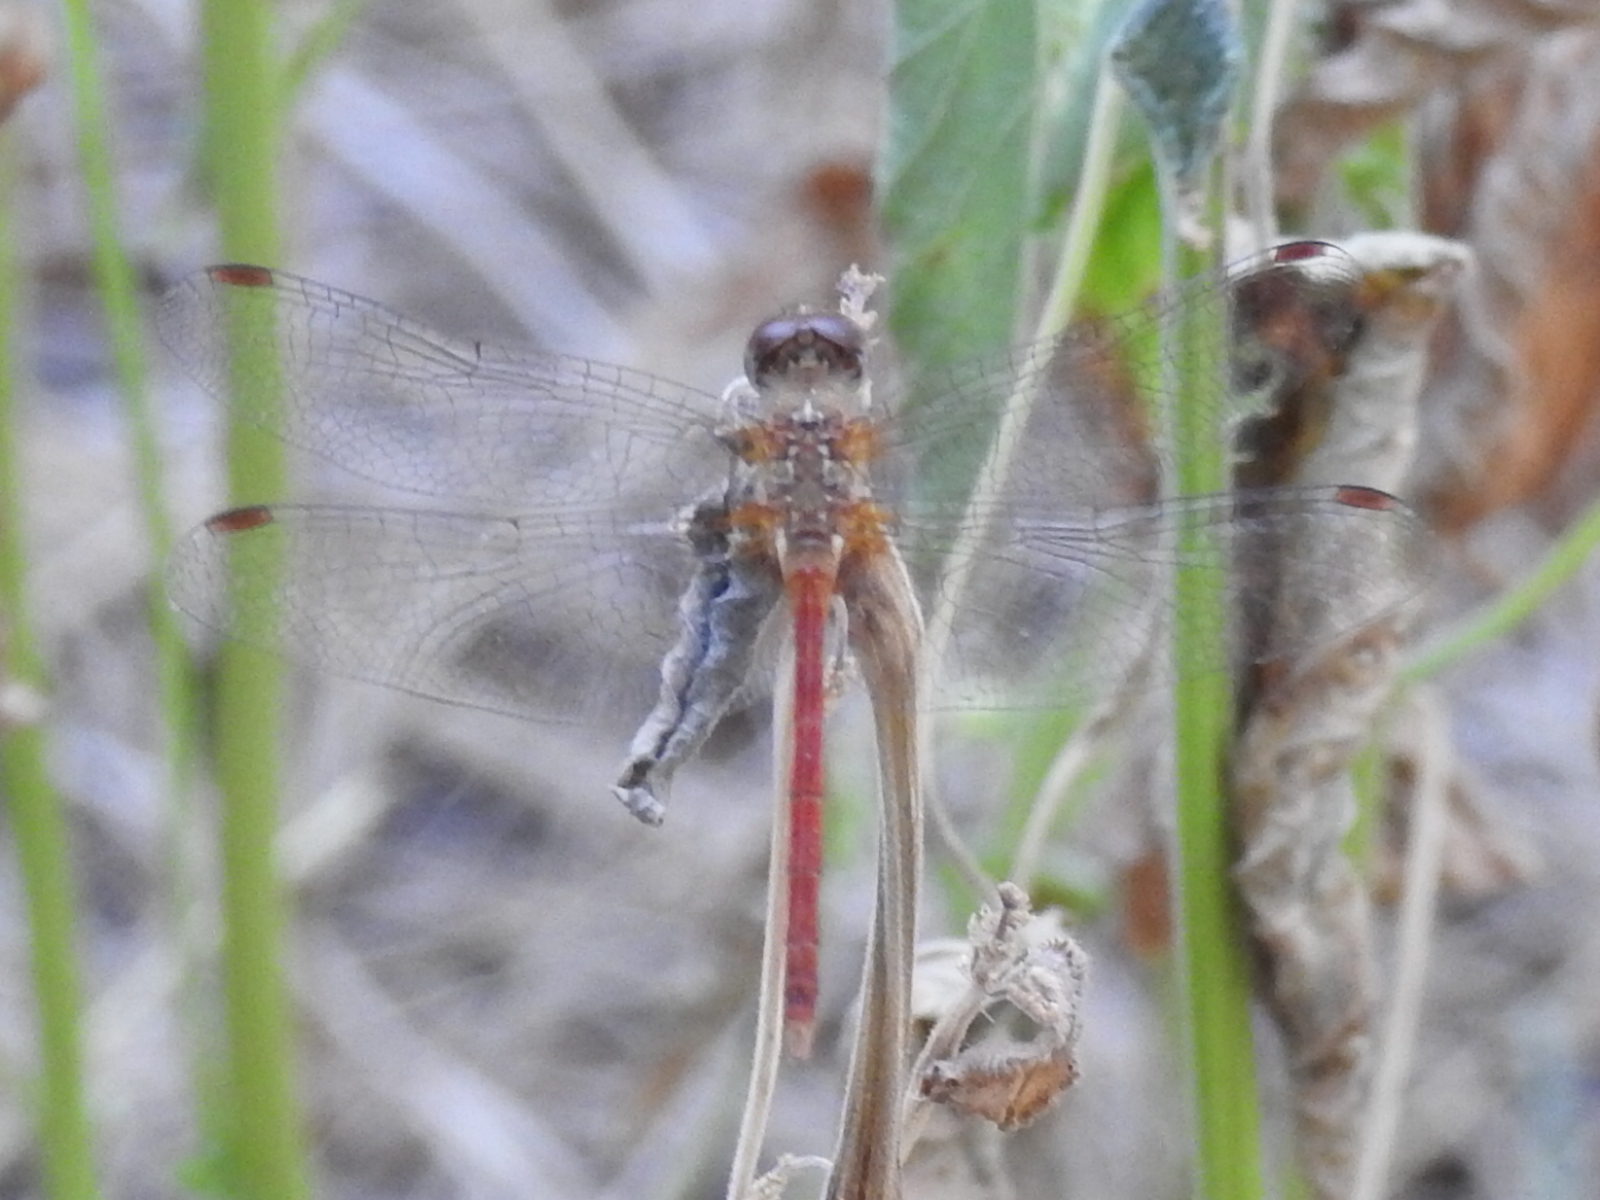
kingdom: Animalia
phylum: Arthropoda
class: Insecta
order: Odonata
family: Libellulidae
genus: Sympetrum
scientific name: Sympetrum vicinum
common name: Autumn meadowhawk
